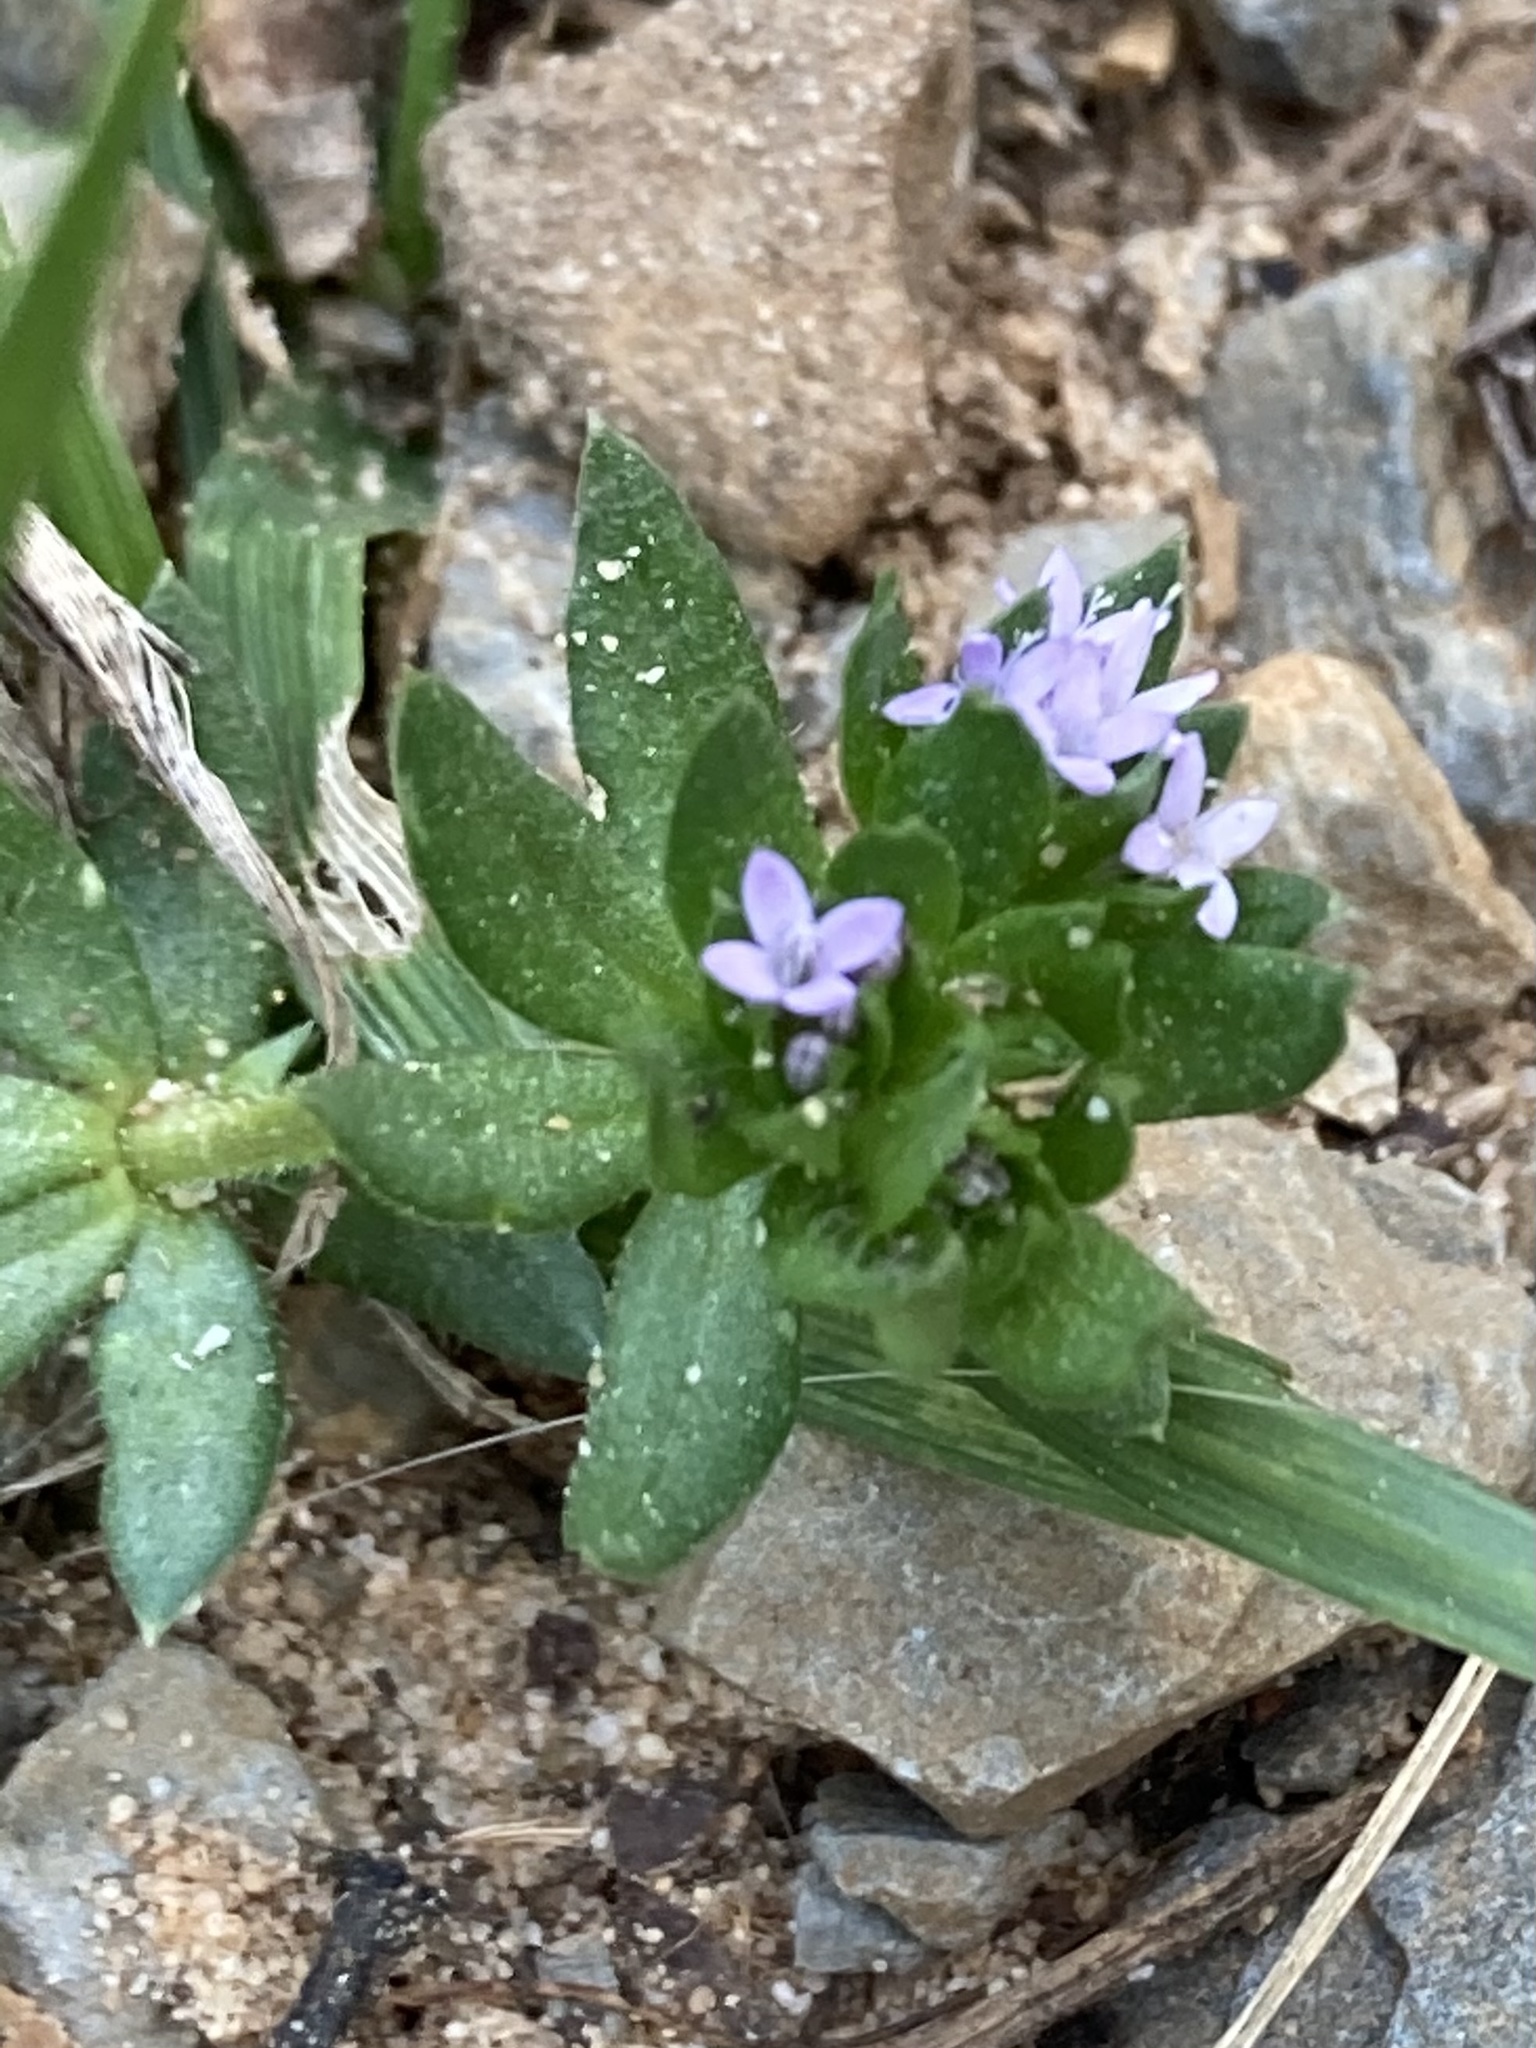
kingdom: Plantae
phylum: Tracheophyta
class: Magnoliopsida
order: Gentianales
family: Rubiaceae
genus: Sherardia
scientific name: Sherardia arvensis
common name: Field madder
